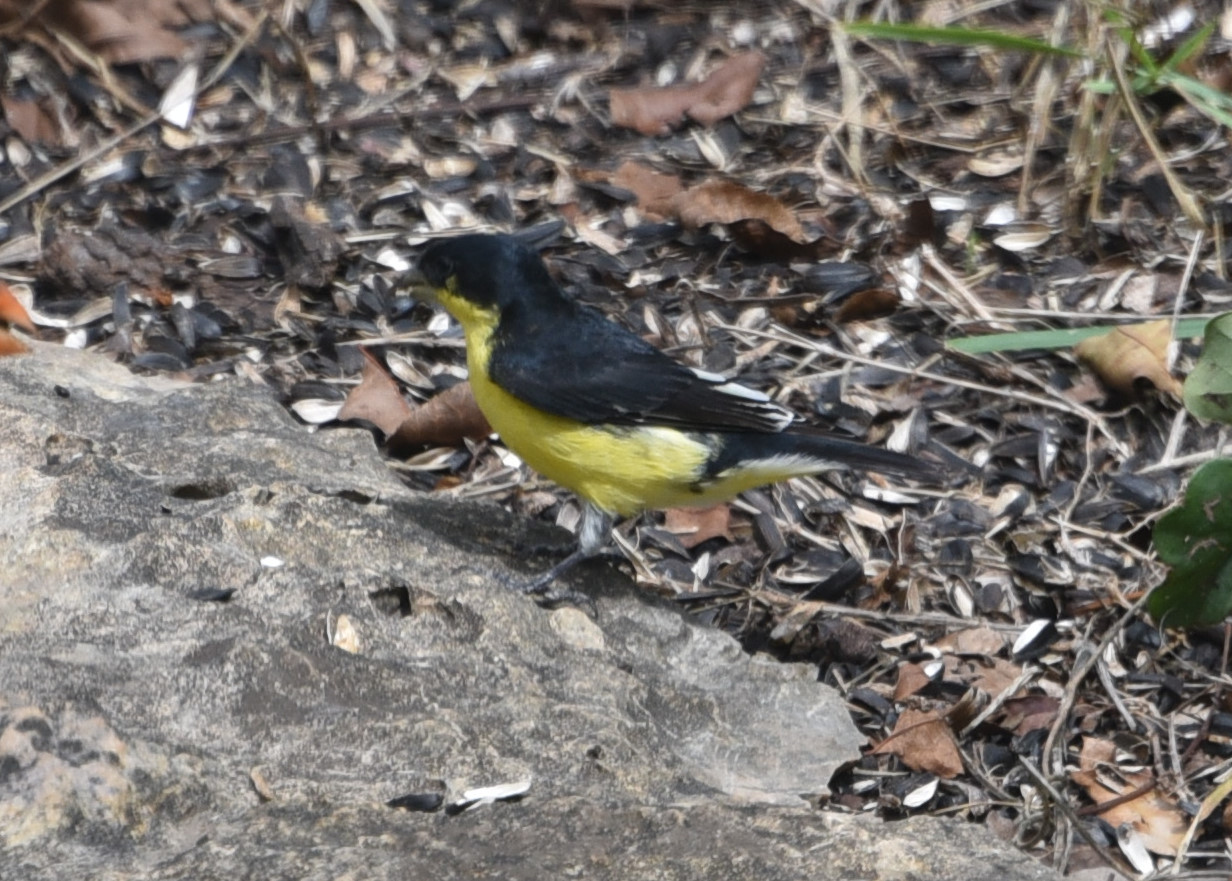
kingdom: Animalia
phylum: Chordata
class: Aves
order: Passeriformes
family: Fringillidae
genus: Spinus
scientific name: Spinus psaltria
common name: Lesser goldfinch
